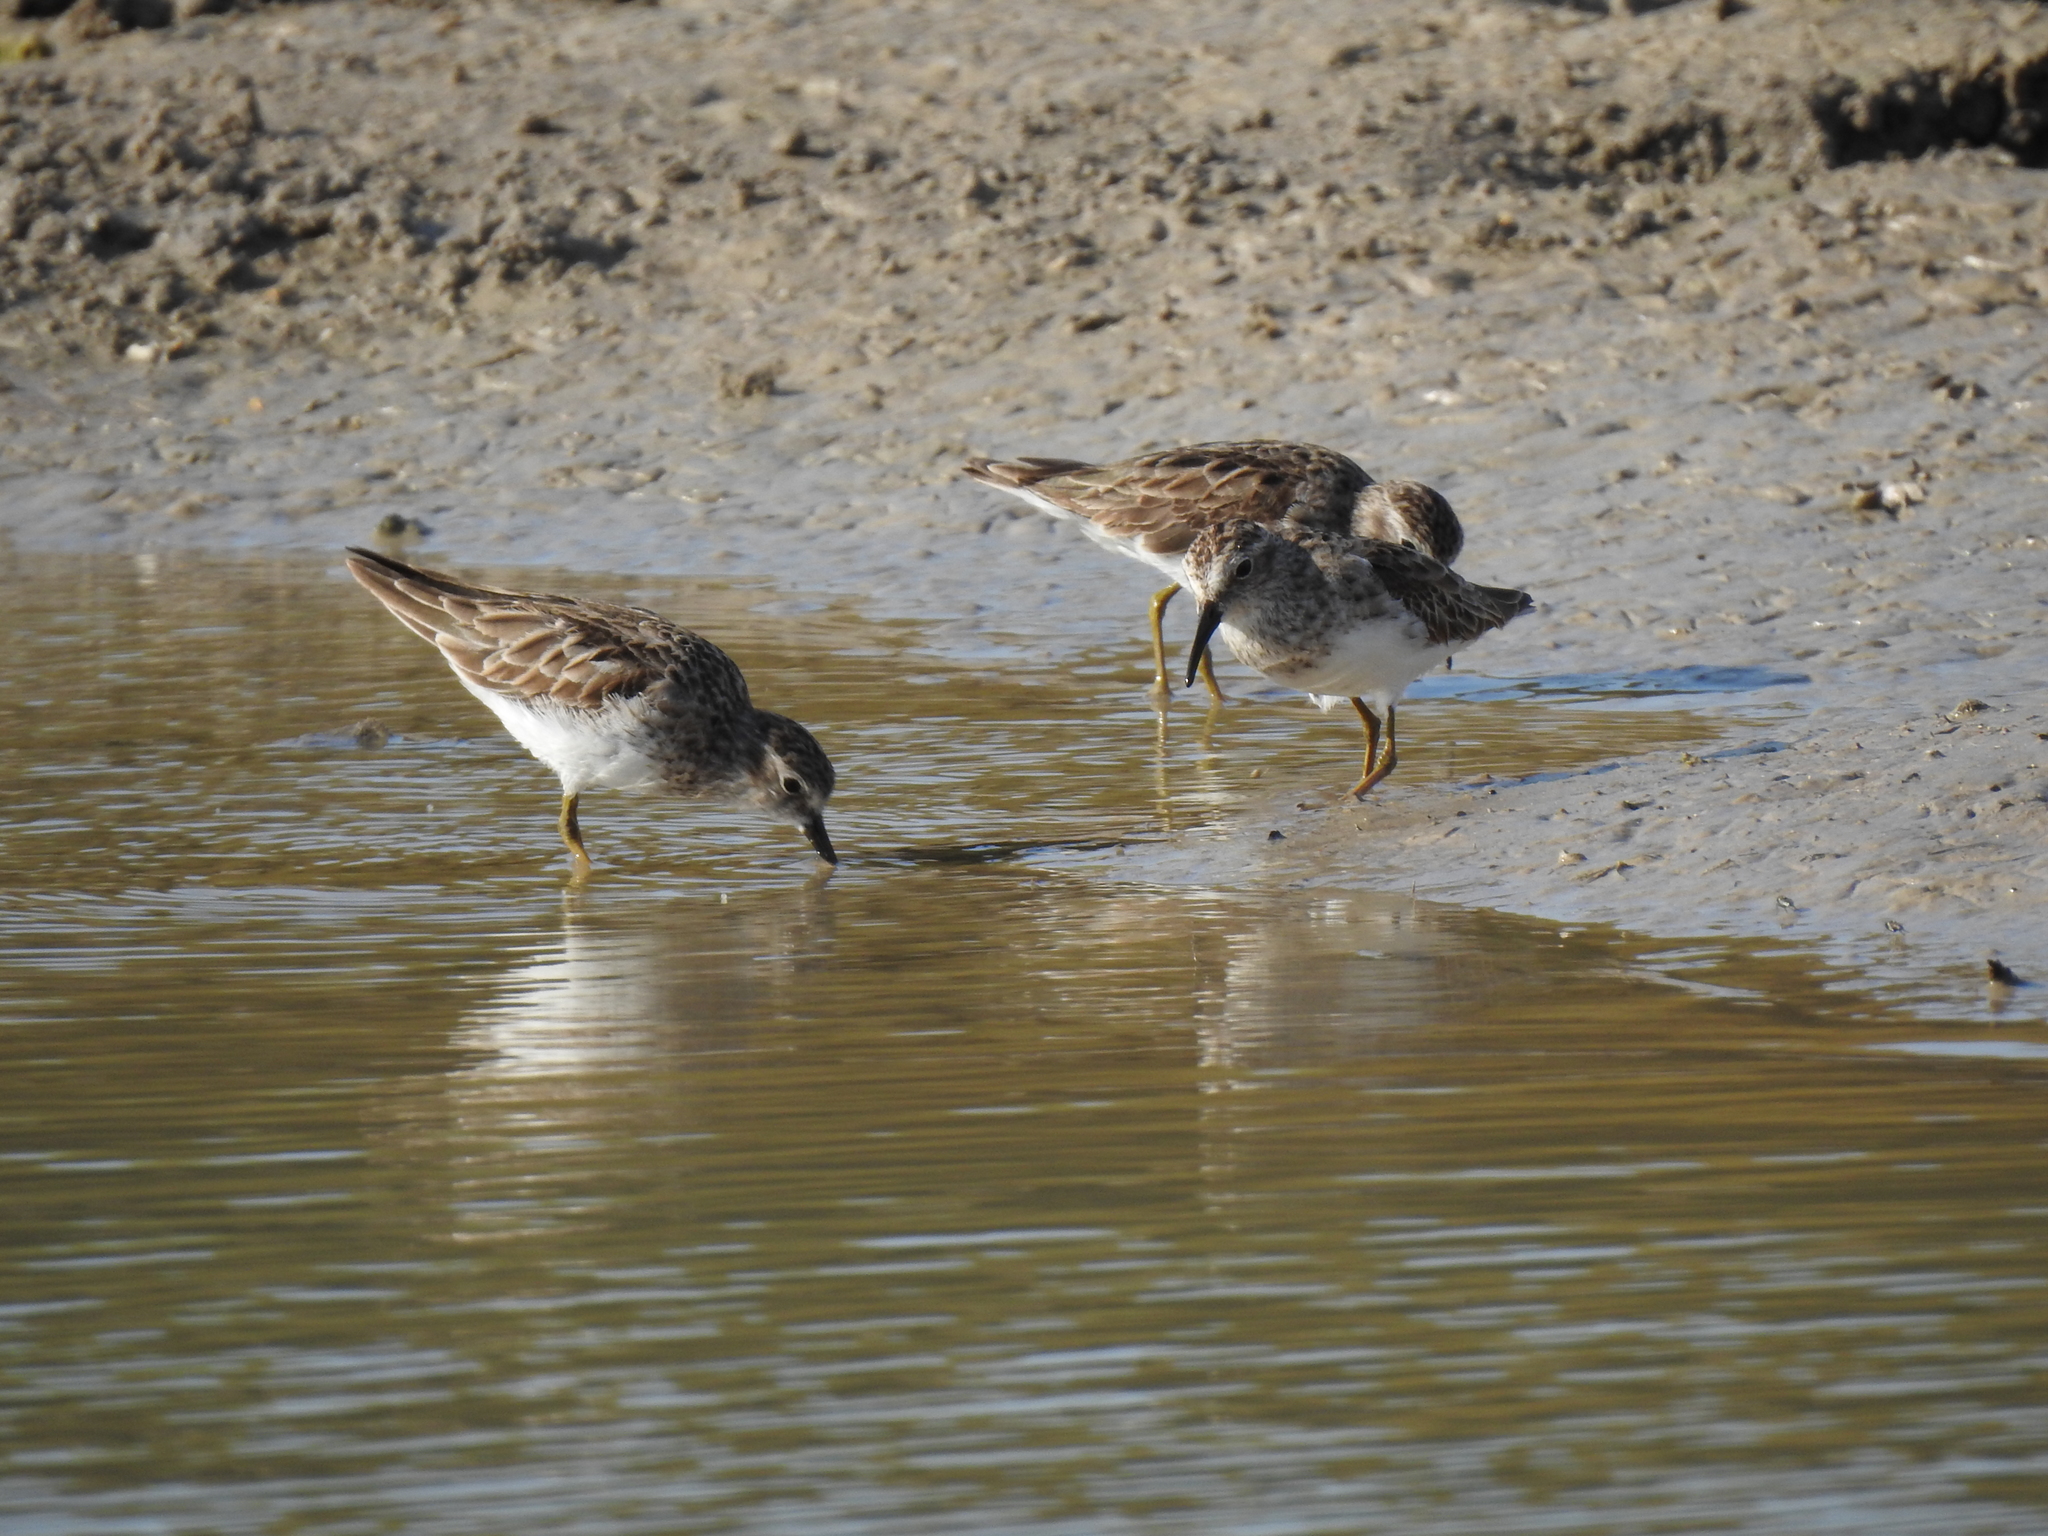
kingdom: Animalia
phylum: Chordata
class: Aves
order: Charadriiformes
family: Scolopacidae
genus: Calidris
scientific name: Calidris minutilla
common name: Least sandpiper
